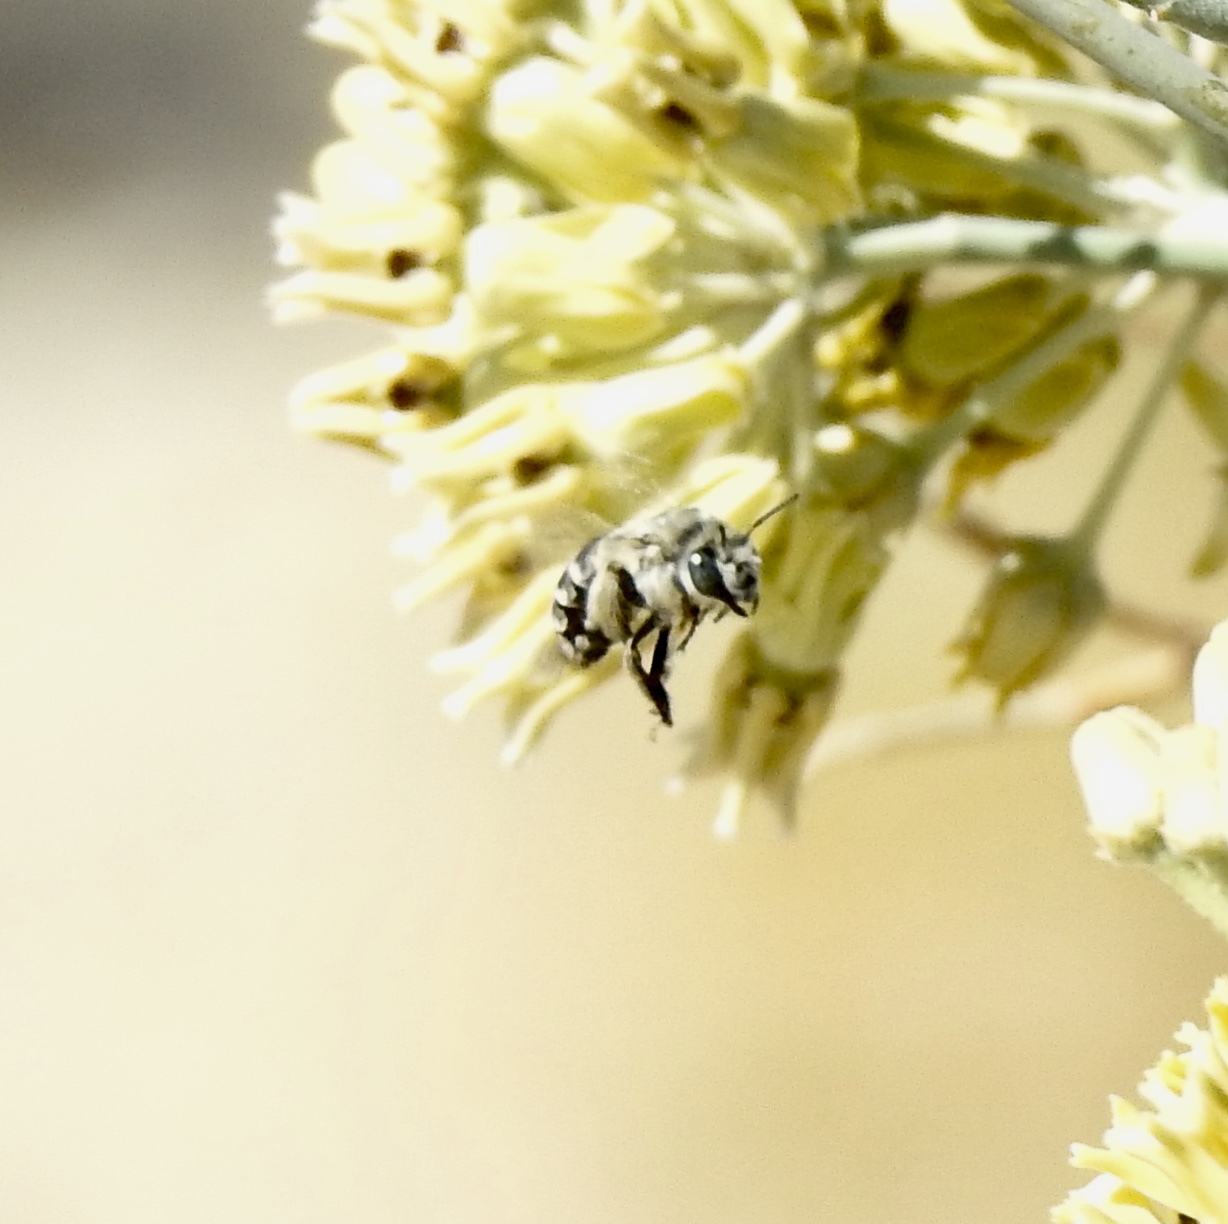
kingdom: Animalia
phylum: Arthropoda
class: Insecta
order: Hymenoptera
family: Apidae
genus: Anthophora
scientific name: Anthophora urbana
